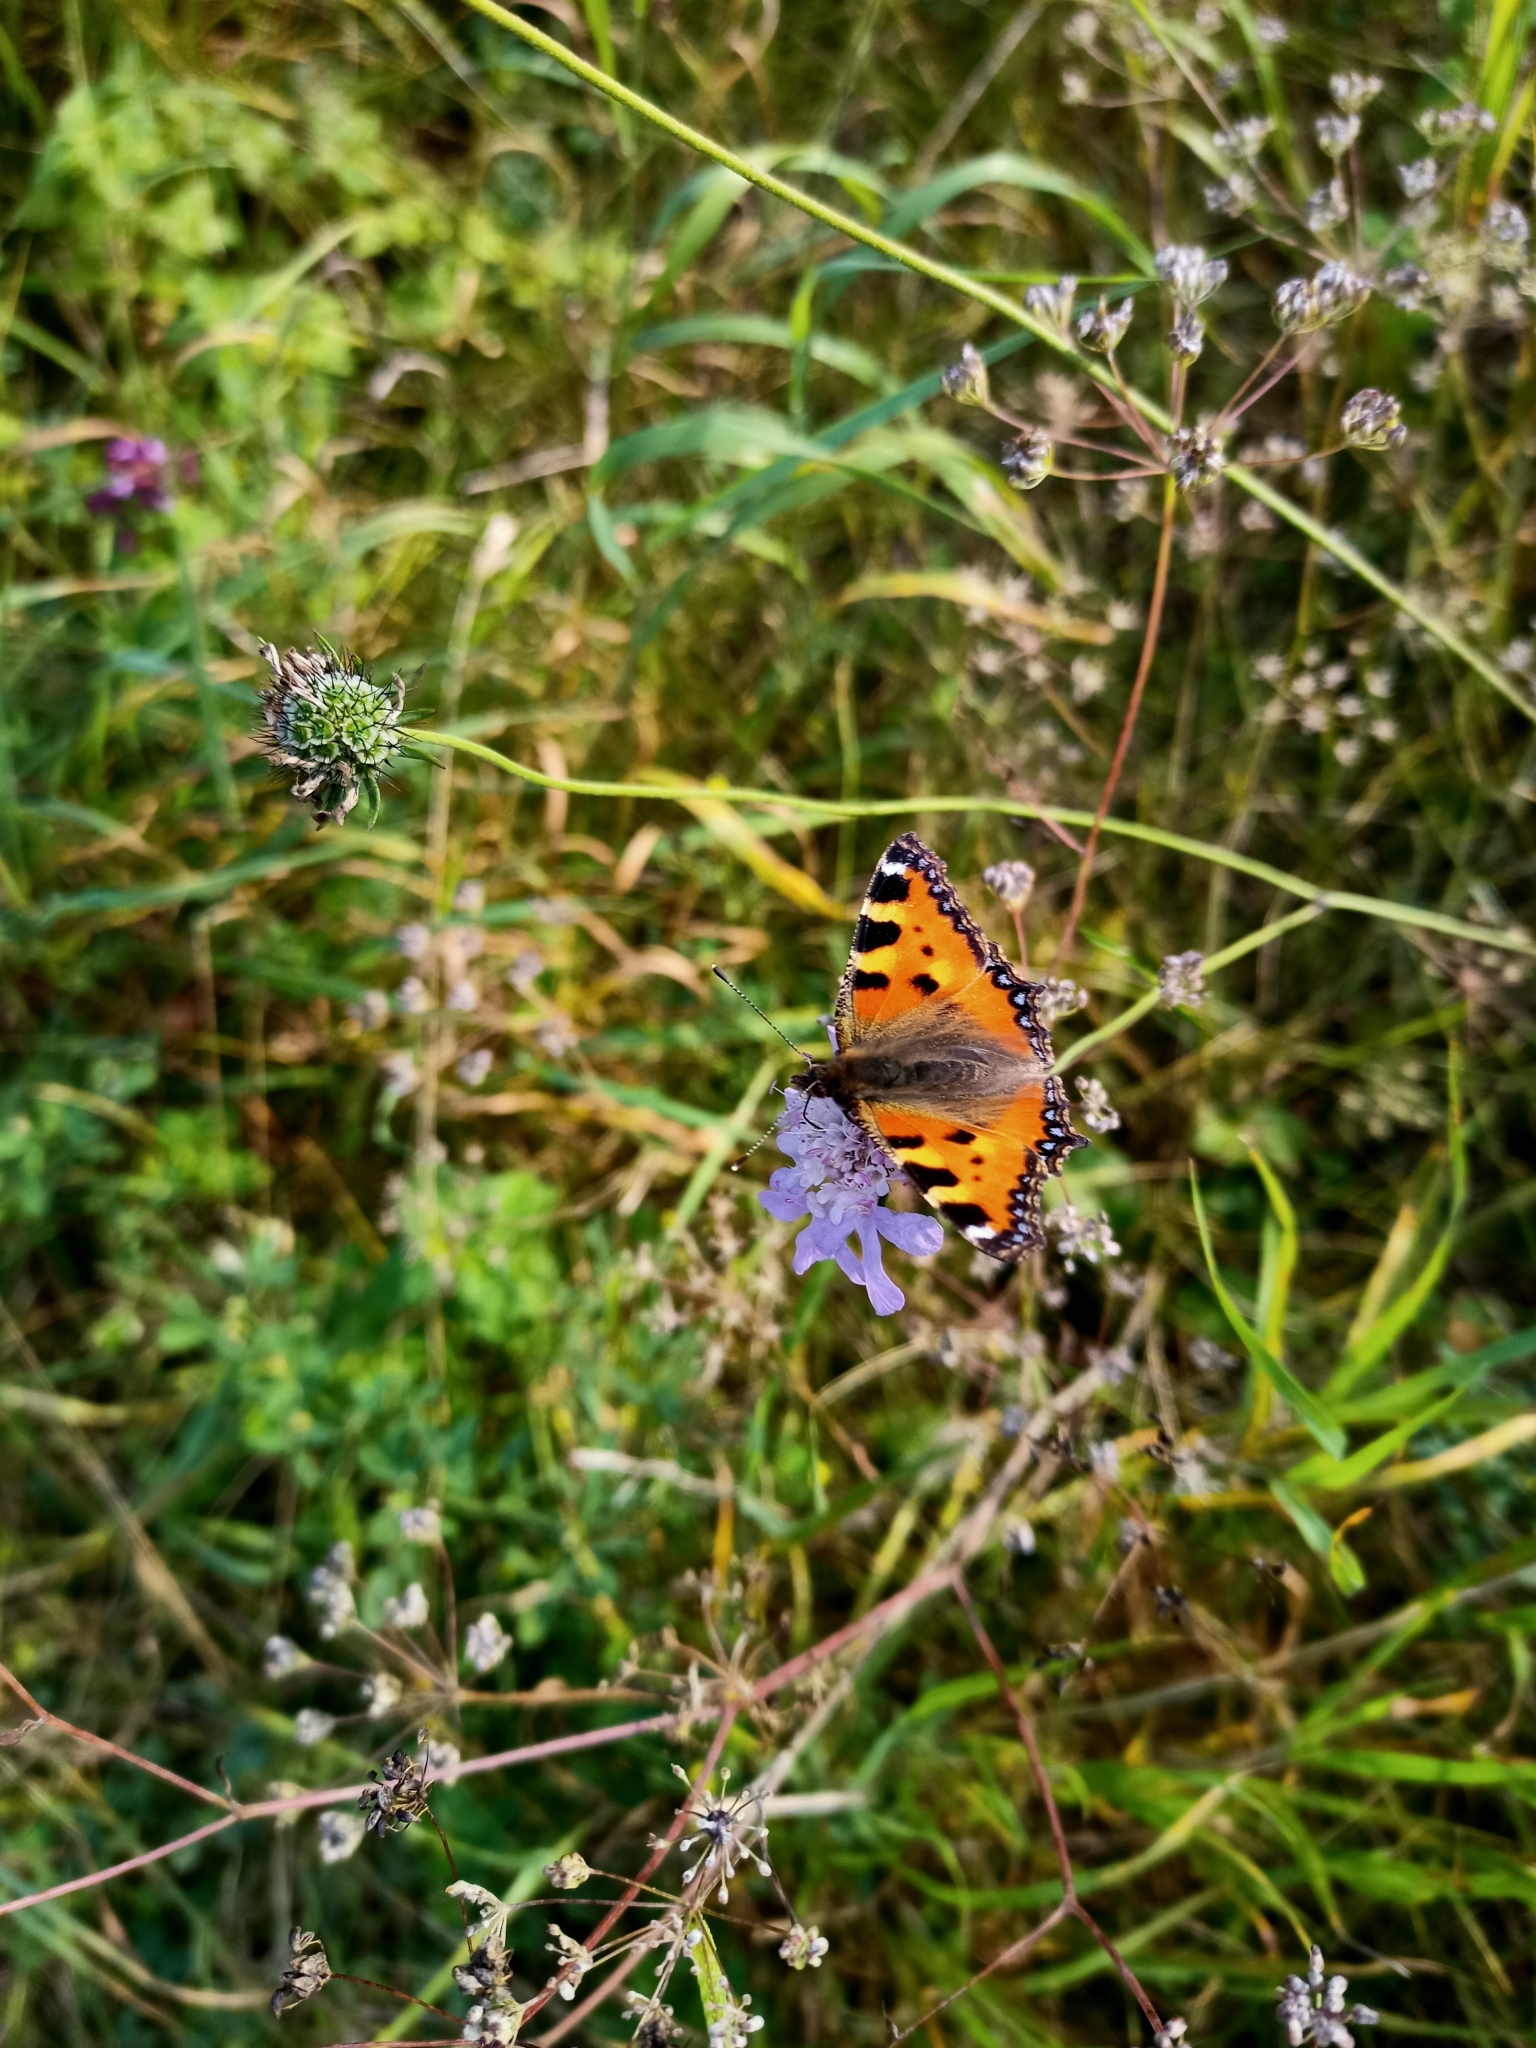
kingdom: Animalia
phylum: Arthropoda
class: Insecta
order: Lepidoptera
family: Nymphalidae
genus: Aglais
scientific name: Aglais urticae
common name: Small tortoiseshell
